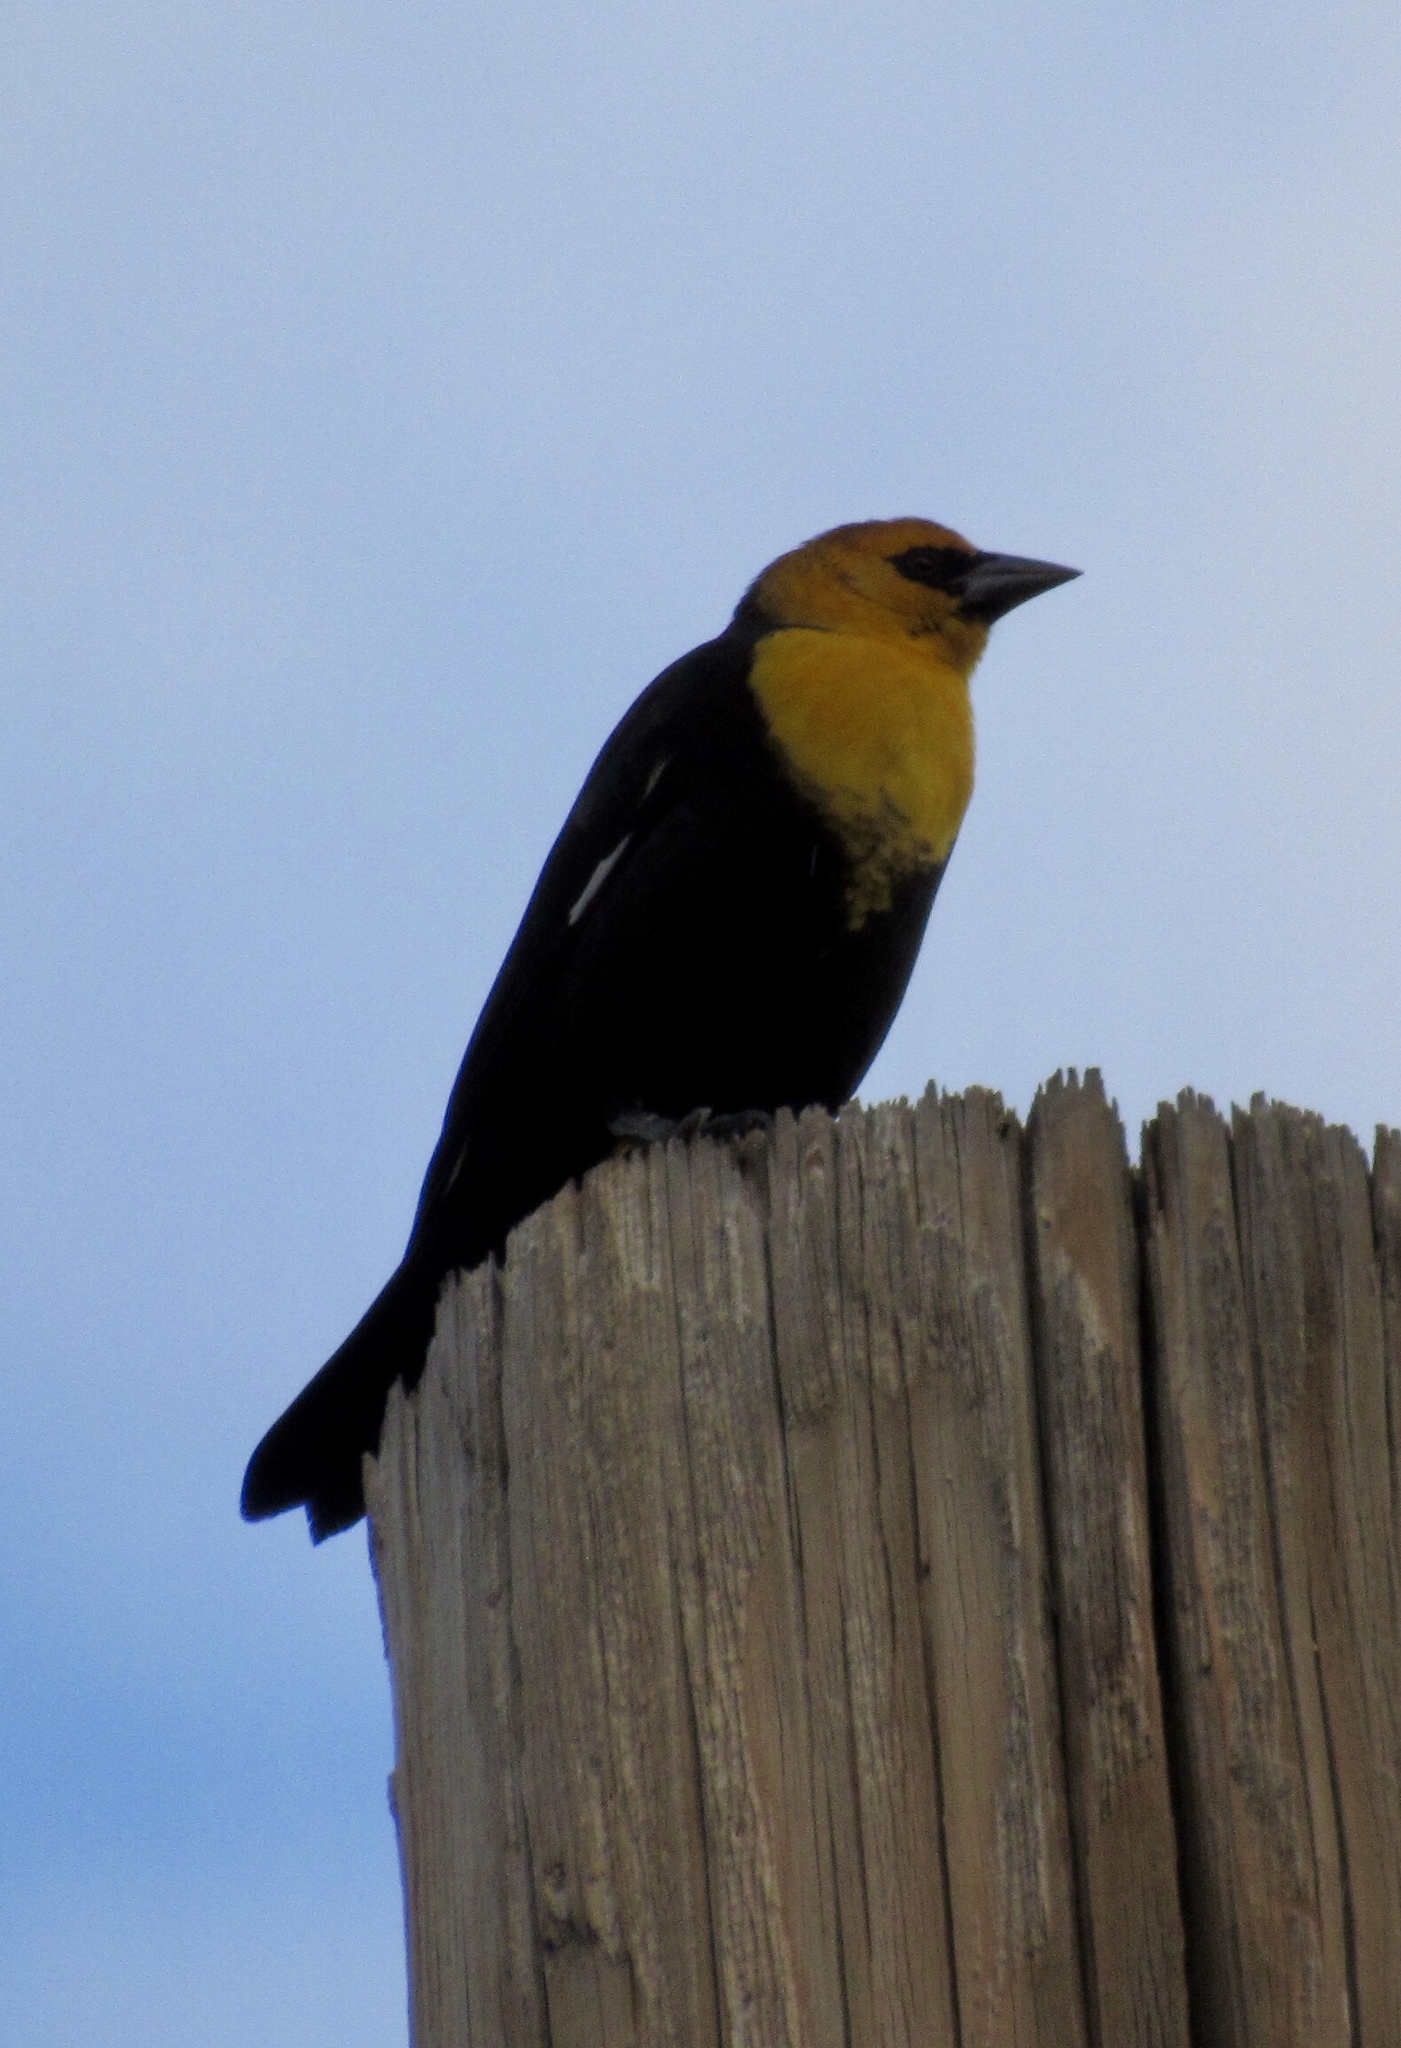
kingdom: Animalia
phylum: Chordata
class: Aves
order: Passeriformes
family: Icteridae
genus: Xanthocephalus
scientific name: Xanthocephalus xanthocephalus
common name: Yellow-headed blackbird
